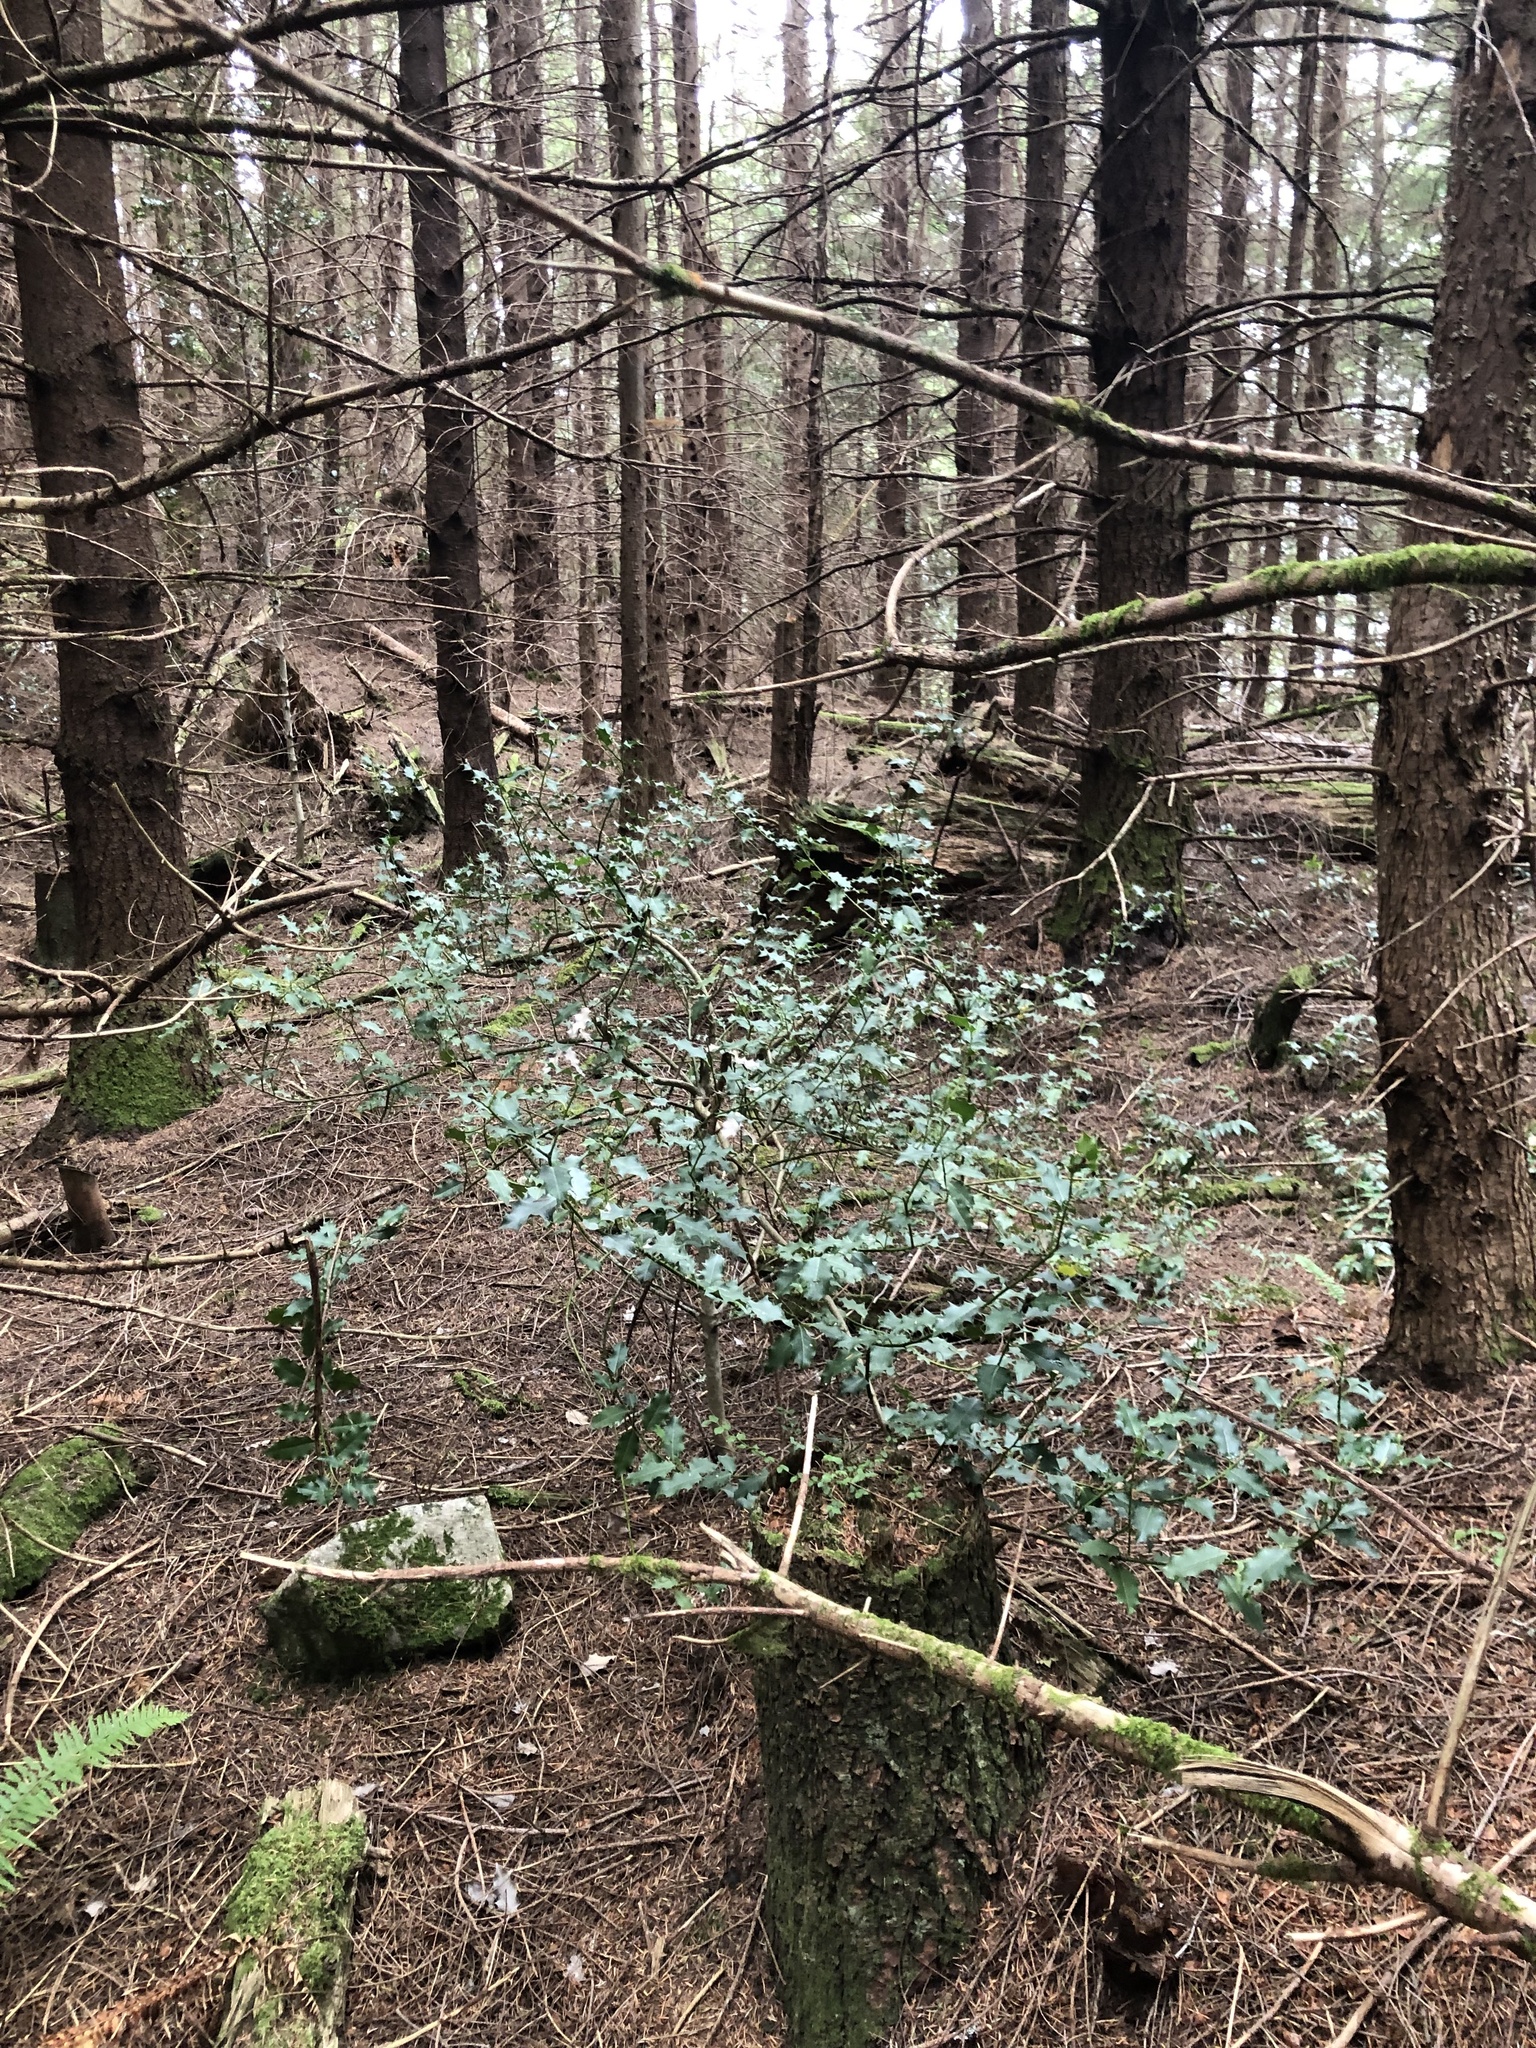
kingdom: Plantae
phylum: Tracheophyta
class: Magnoliopsida
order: Aquifoliales
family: Aquifoliaceae
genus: Ilex
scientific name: Ilex aquifolium
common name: English holly
